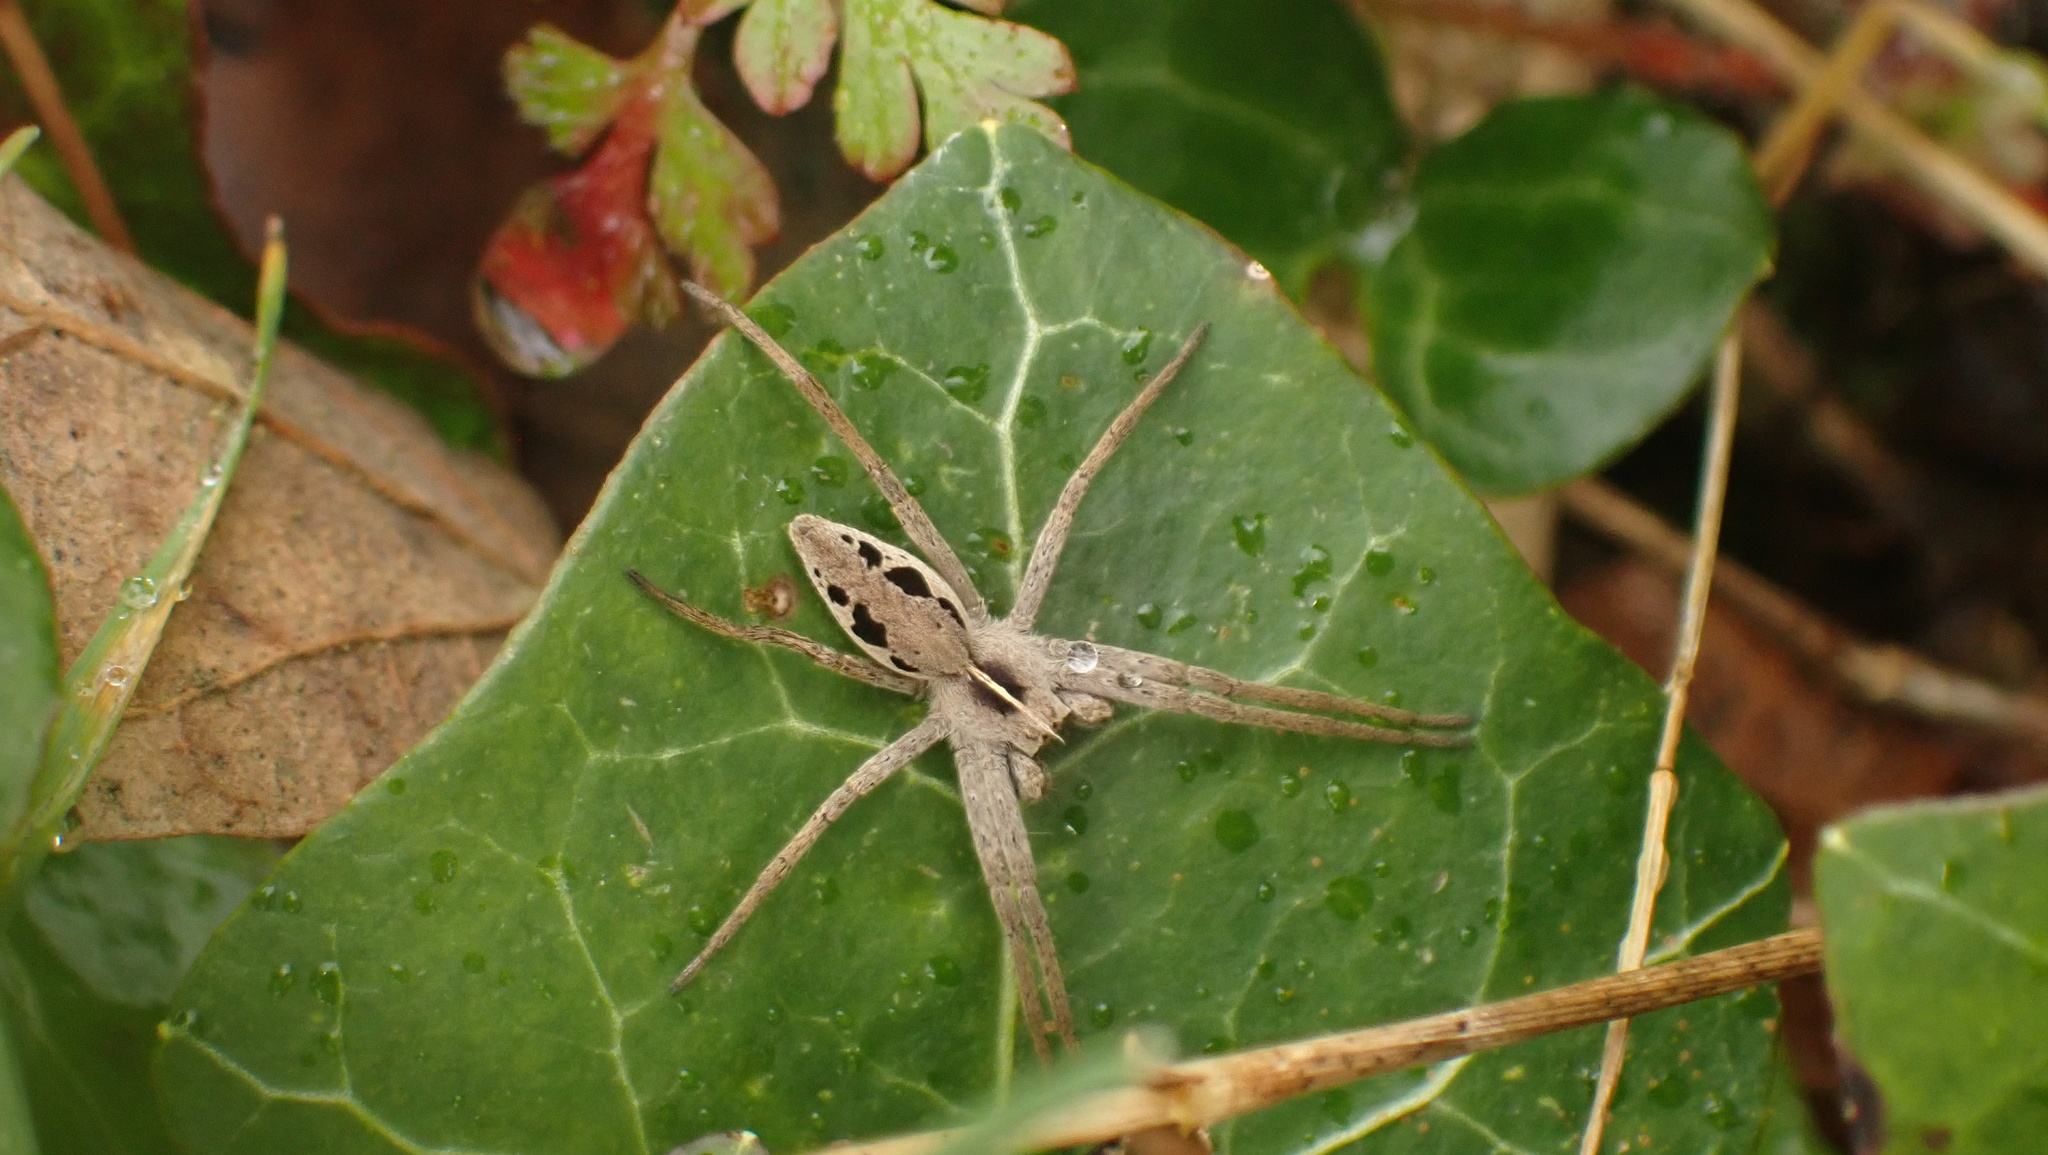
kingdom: Animalia
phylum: Arthropoda
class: Arachnida
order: Araneae
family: Pisauridae
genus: Pisaura
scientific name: Pisaura mirabilis
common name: Tent spider
